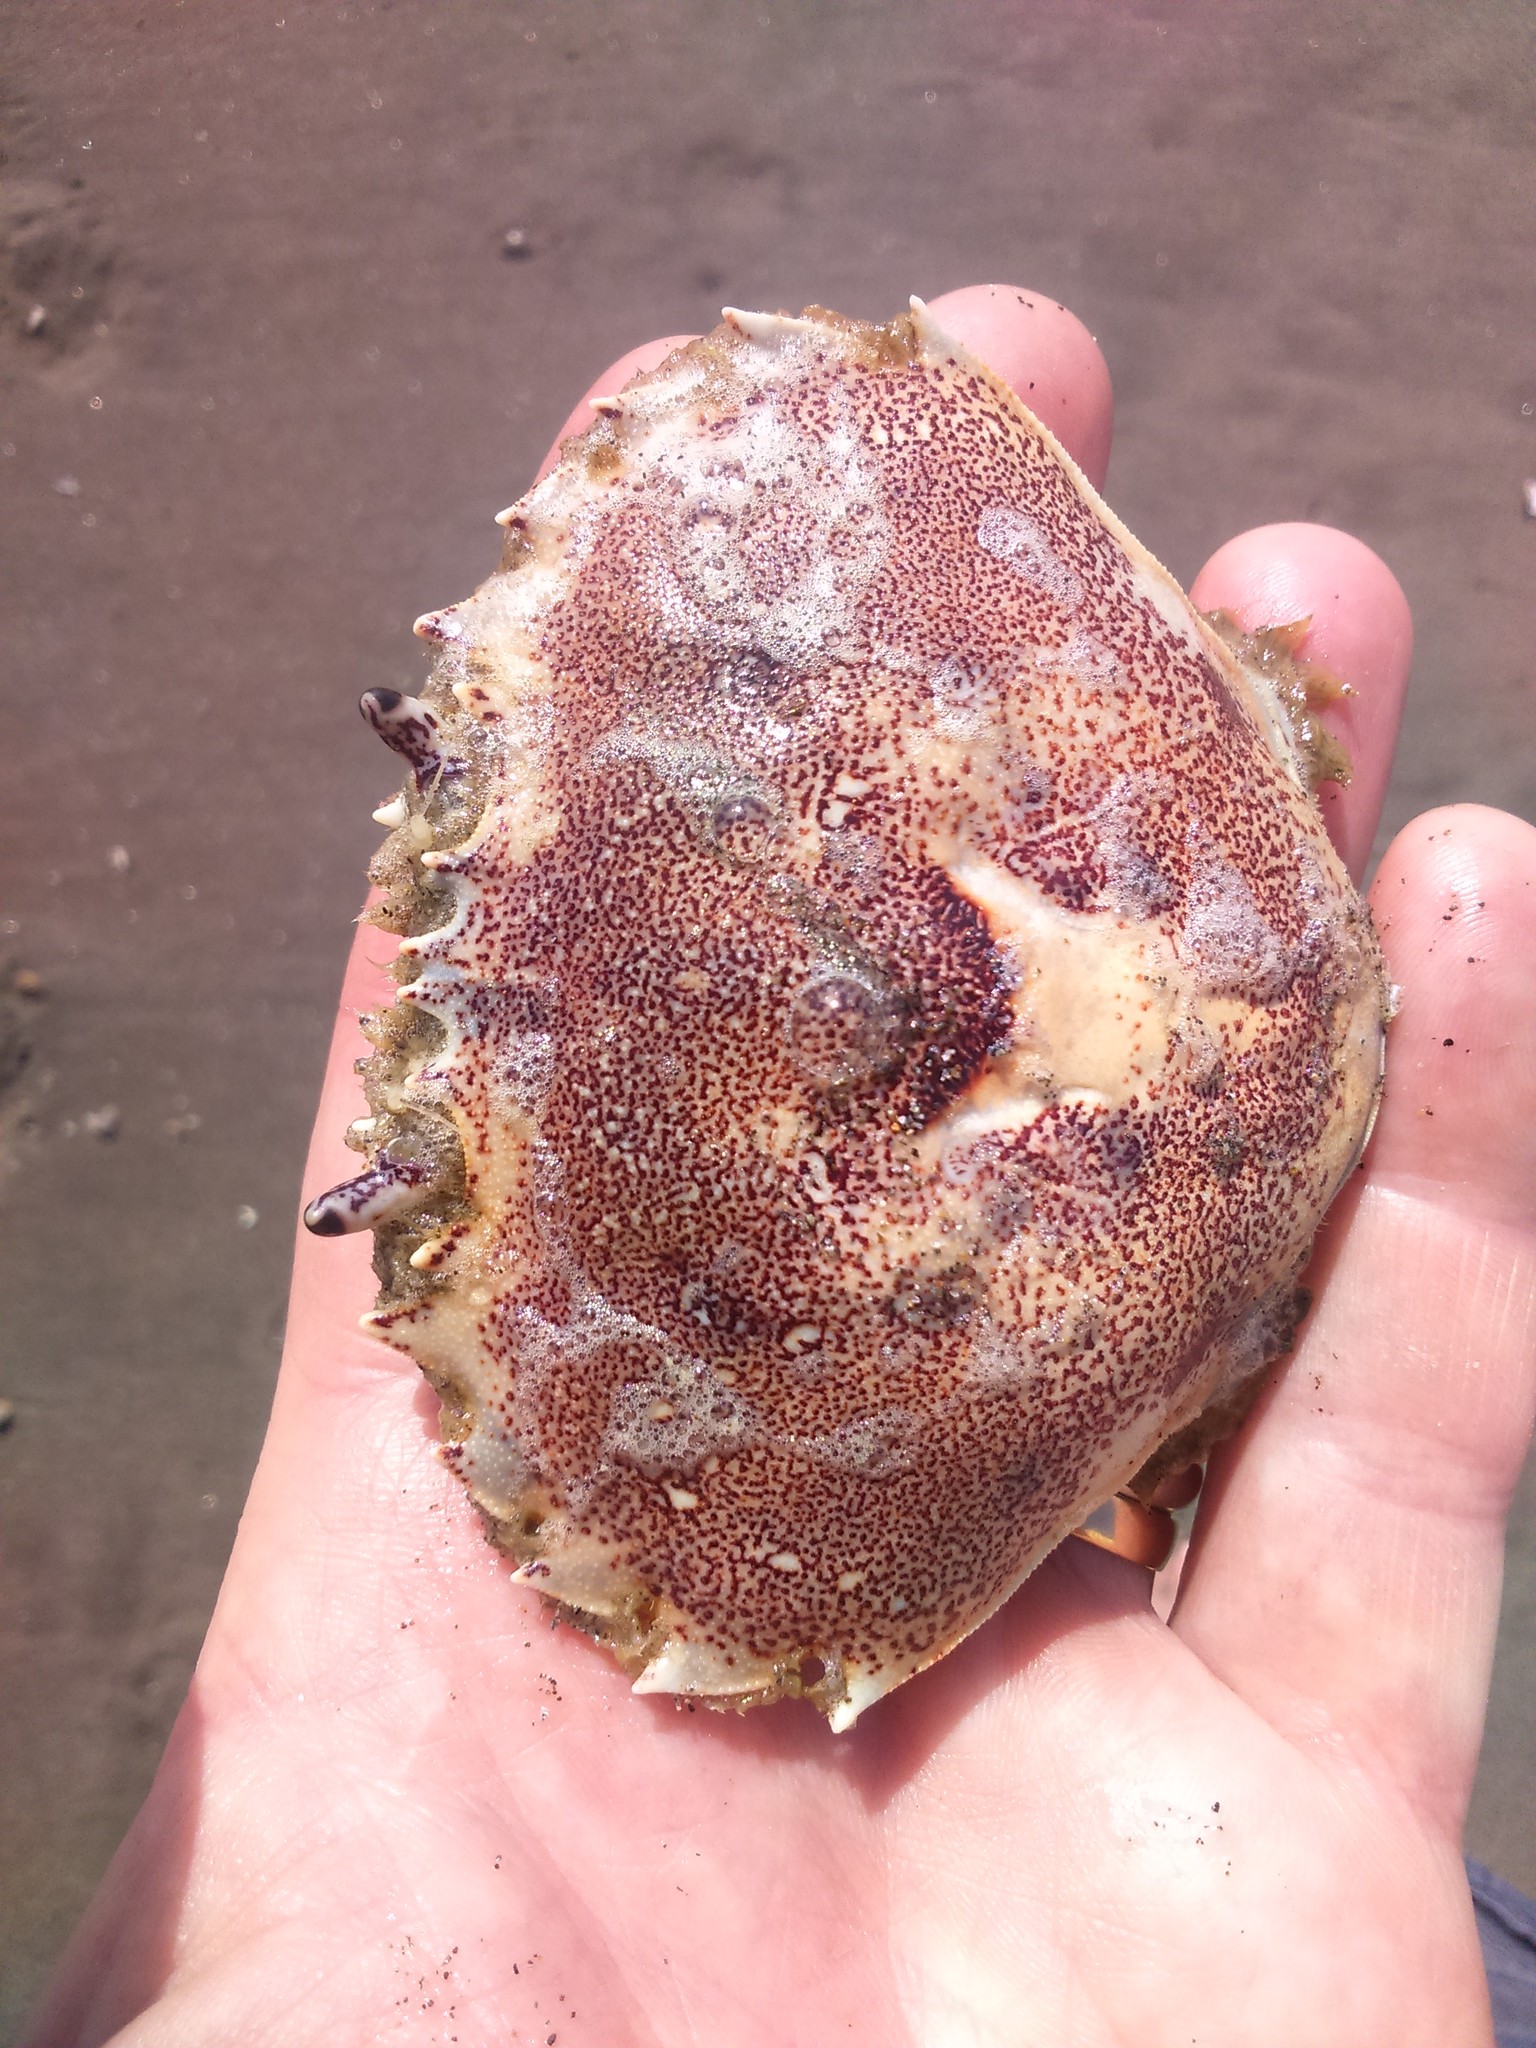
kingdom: Animalia
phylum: Arthropoda
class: Malacostraca
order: Decapoda
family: Ovalipidae
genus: Ovalipes
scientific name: Ovalipes trimaculatus
